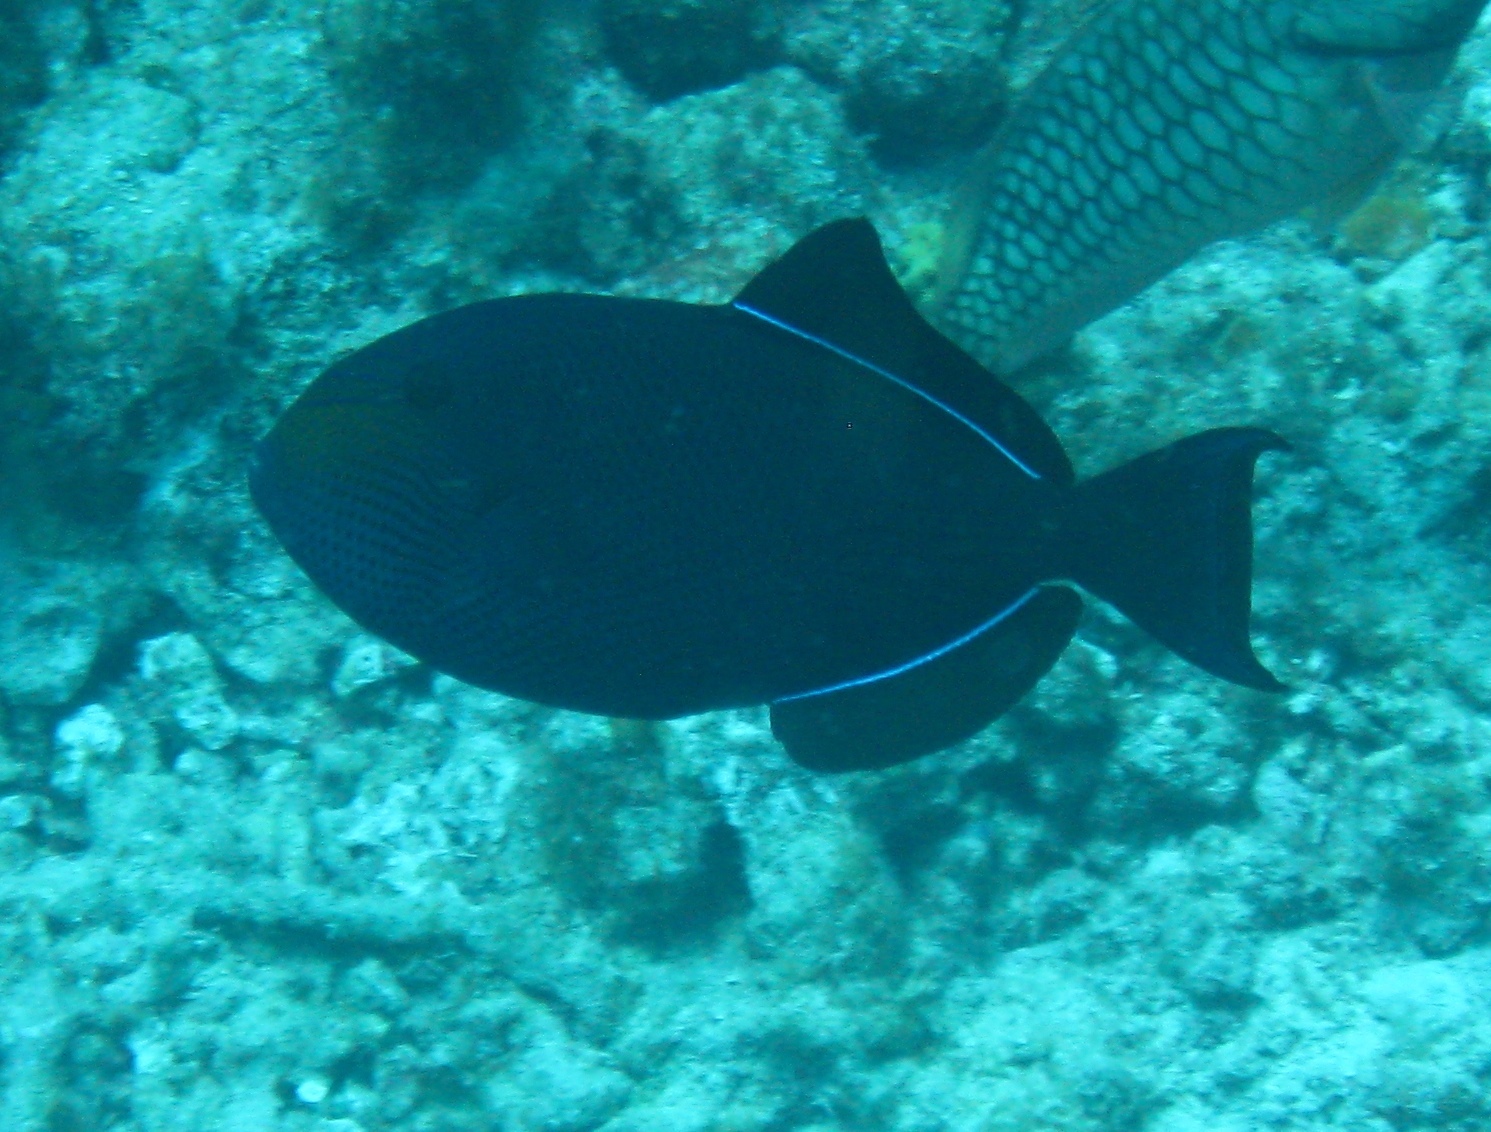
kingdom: Animalia
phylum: Chordata
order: Tetraodontiformes
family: Balistidae
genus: Melichthys
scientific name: Melichthys niger
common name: Black durgon
